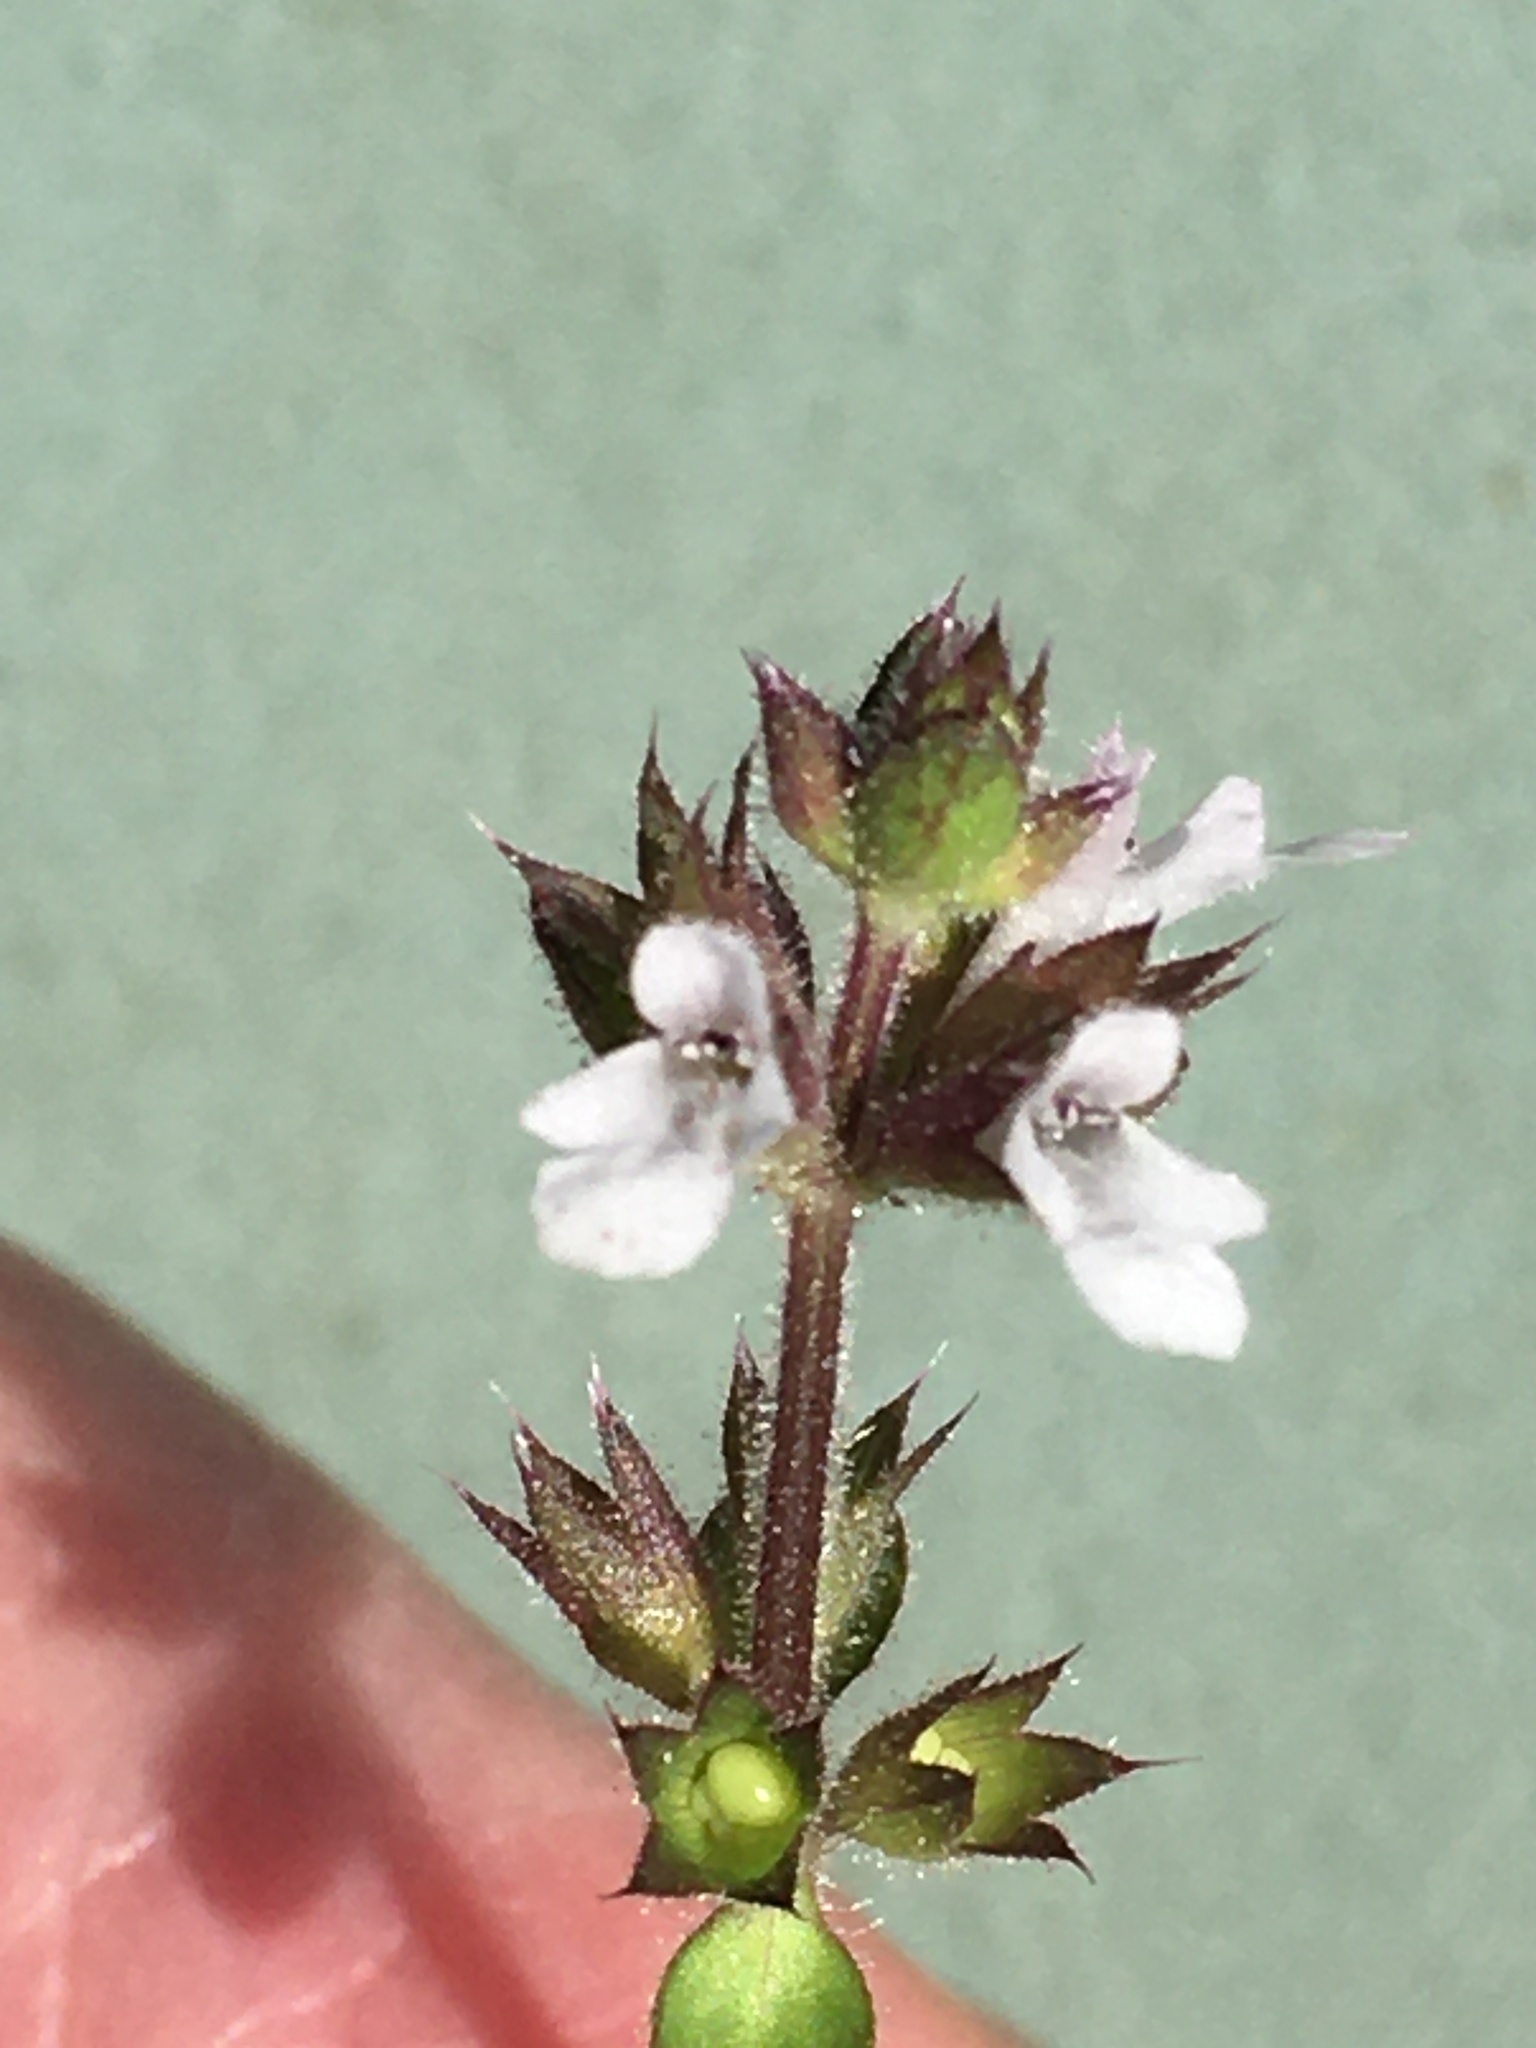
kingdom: Plantae
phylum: Tracheophyta
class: Magnoliopsida
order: Lamiales
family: Lamiaceae
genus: Stachys
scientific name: Stachys
